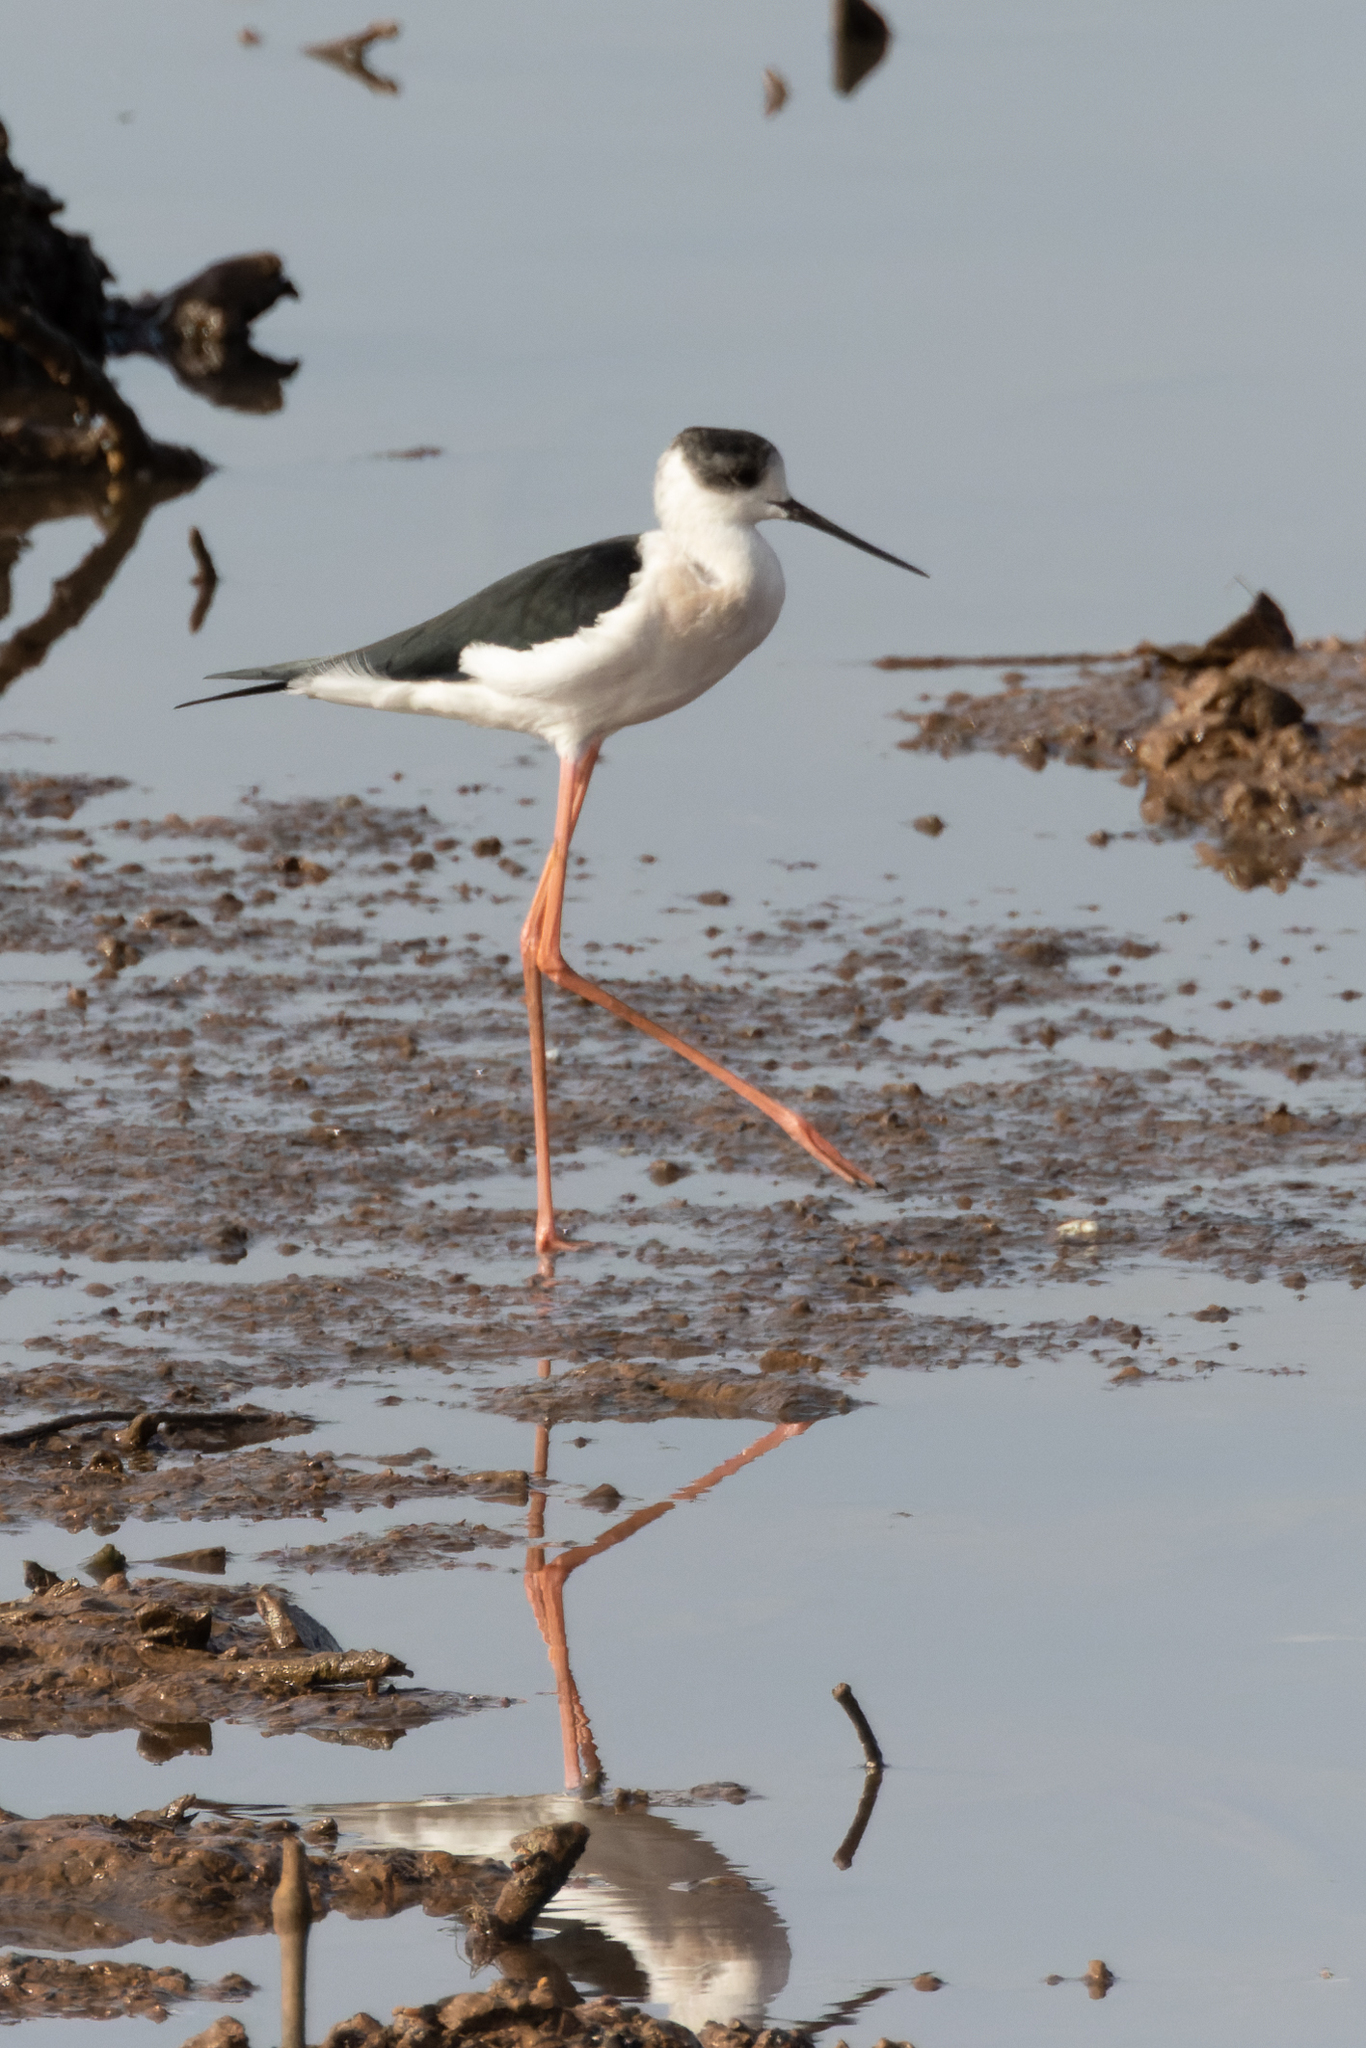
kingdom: Animalia
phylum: Chordata
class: Aves
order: Charadriiformes
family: Recurvirostridae
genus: Himantopus
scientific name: Himantopus himantopus
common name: Black-winged stilt
